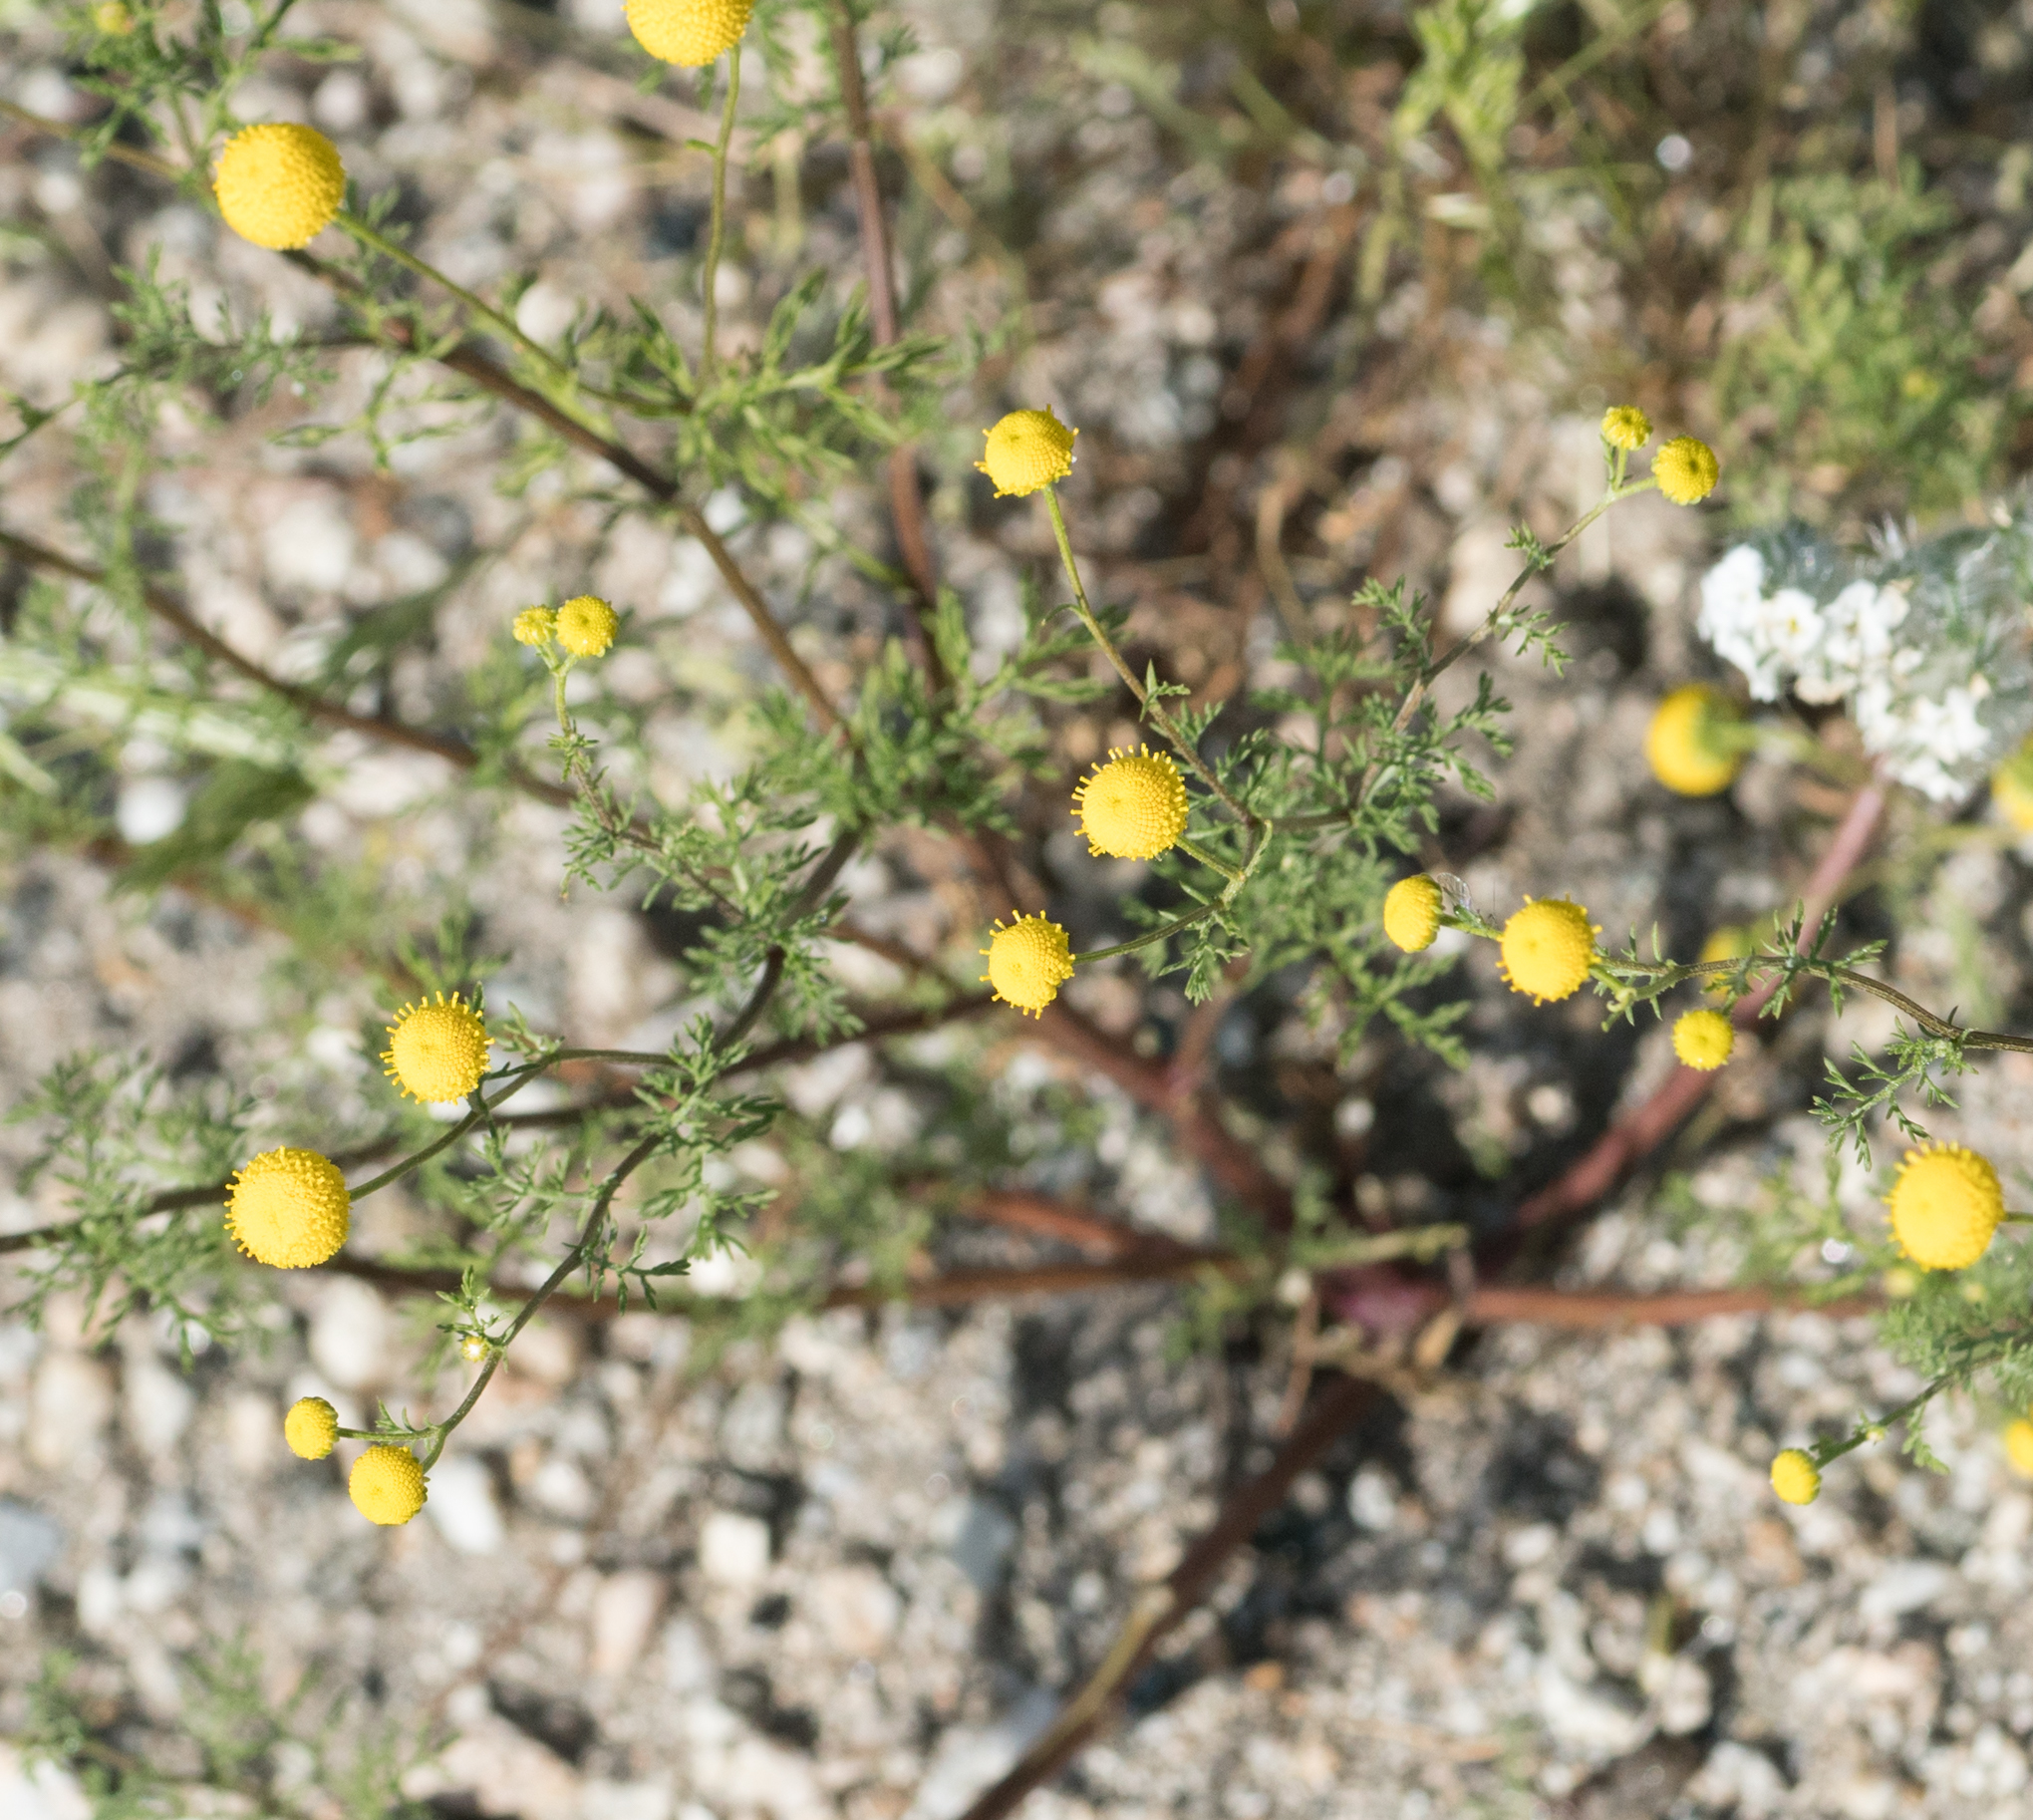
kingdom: Plantae
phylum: Tracheophyta
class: Magnoliopsida
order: Asterales
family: Asteraceae
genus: Oncosiphon
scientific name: Oncosiphon pilulifer
